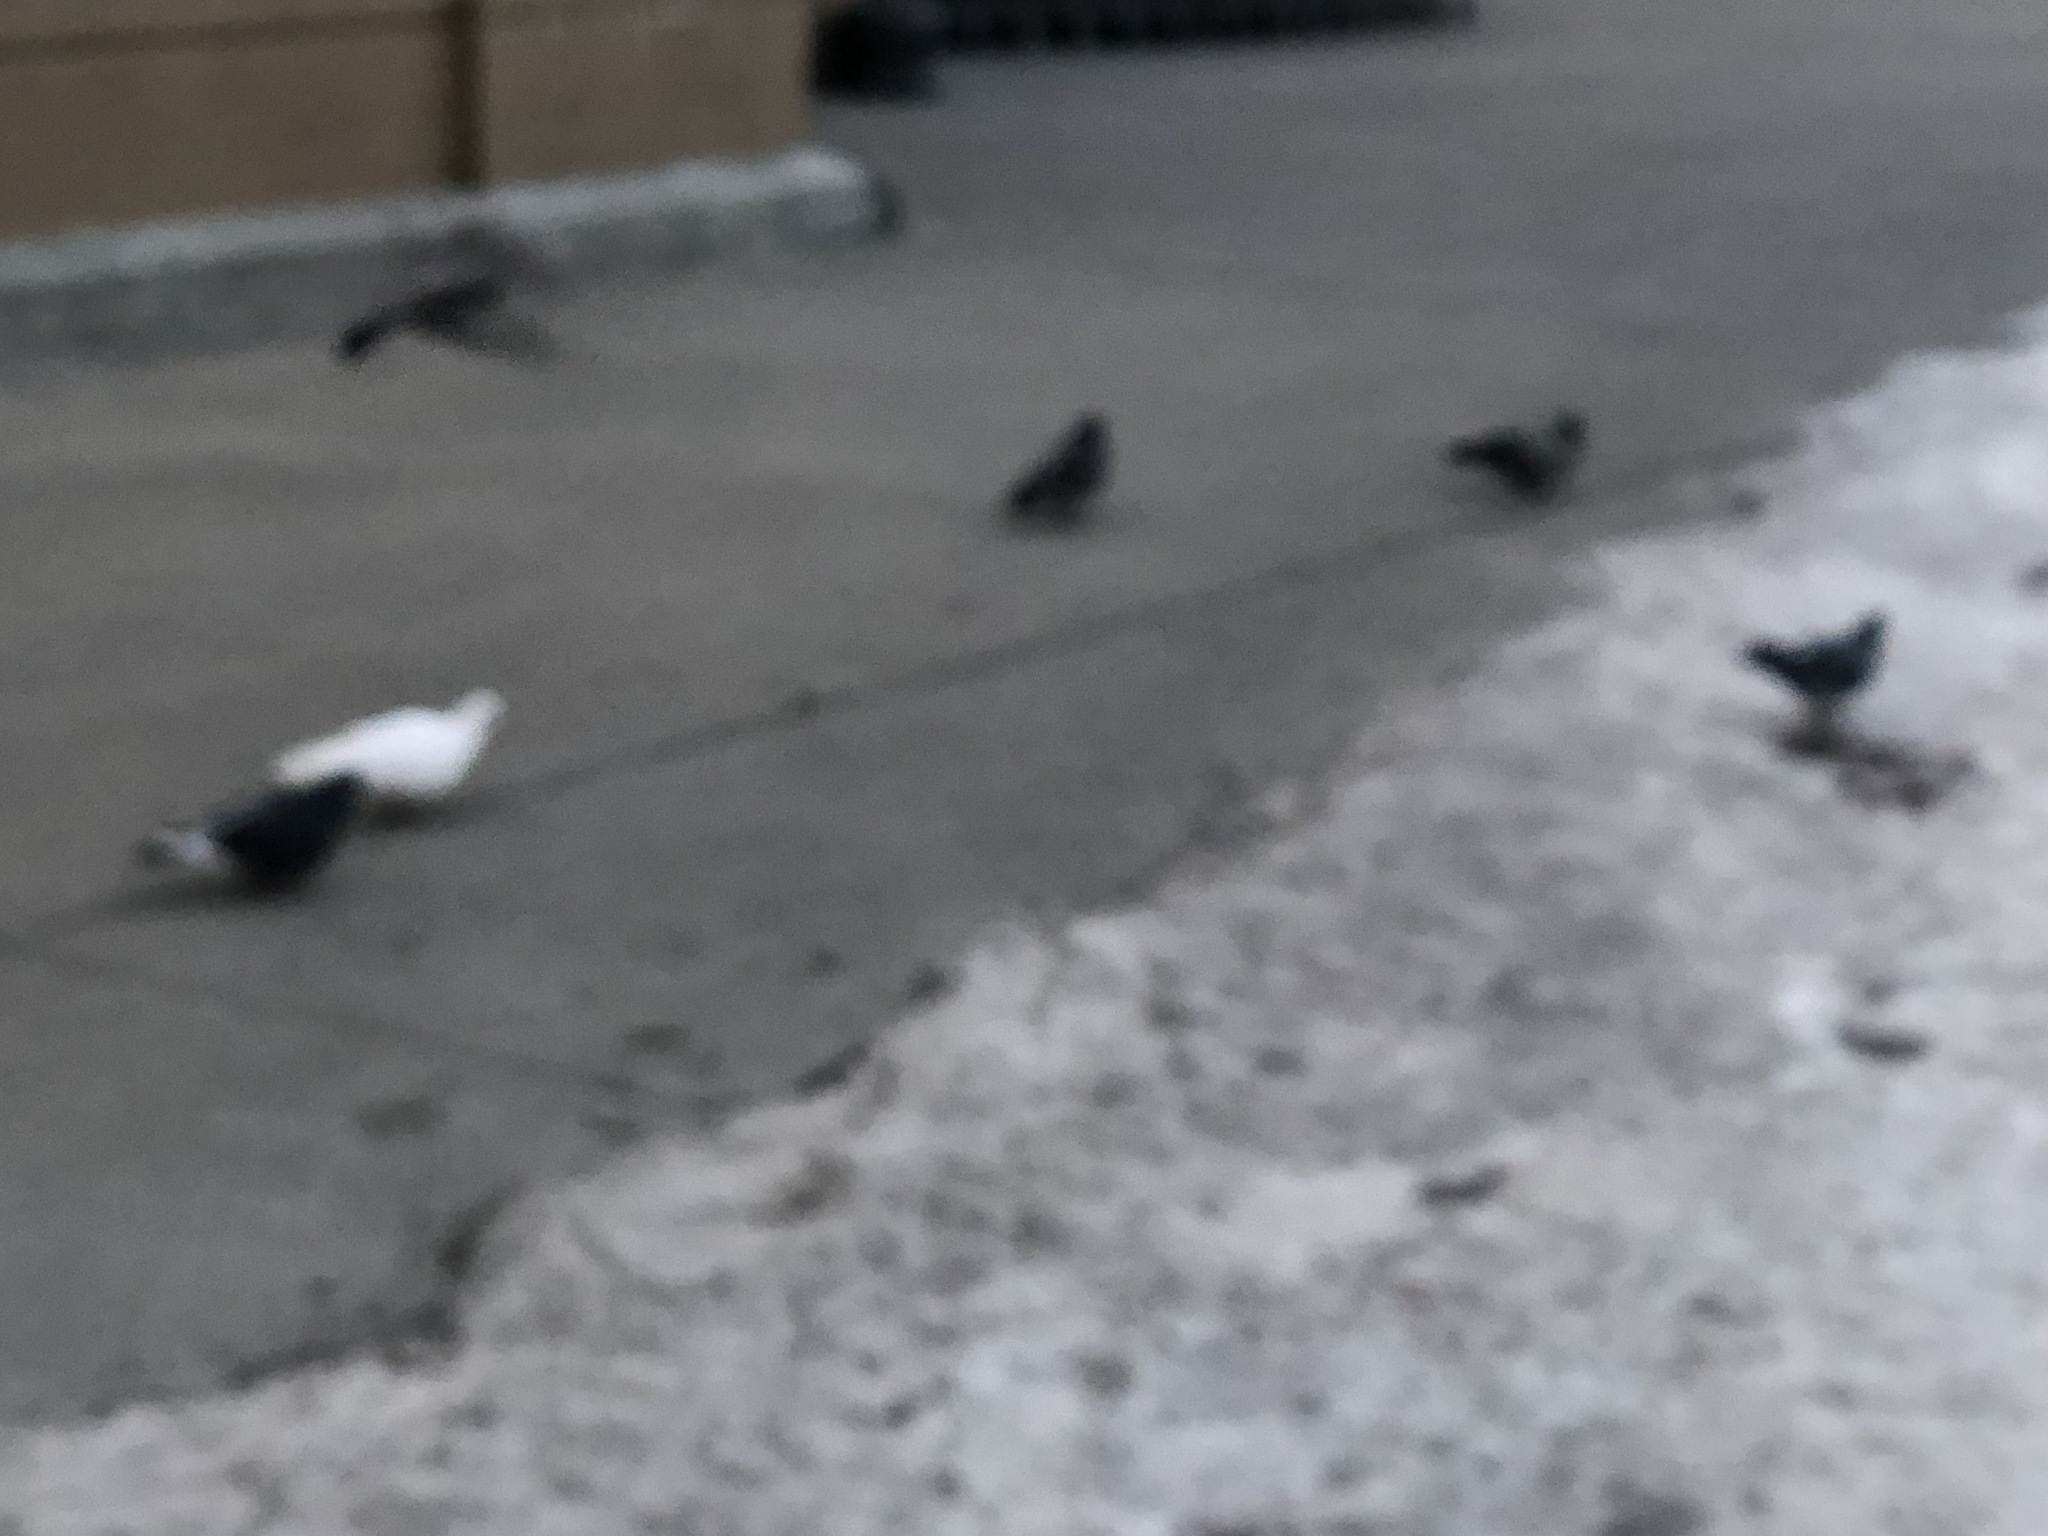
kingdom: Animalia
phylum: Chordata
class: Aves
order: Columbiformes
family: Columbidae
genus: Columba
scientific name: Columba livia
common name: Rock pigeon
